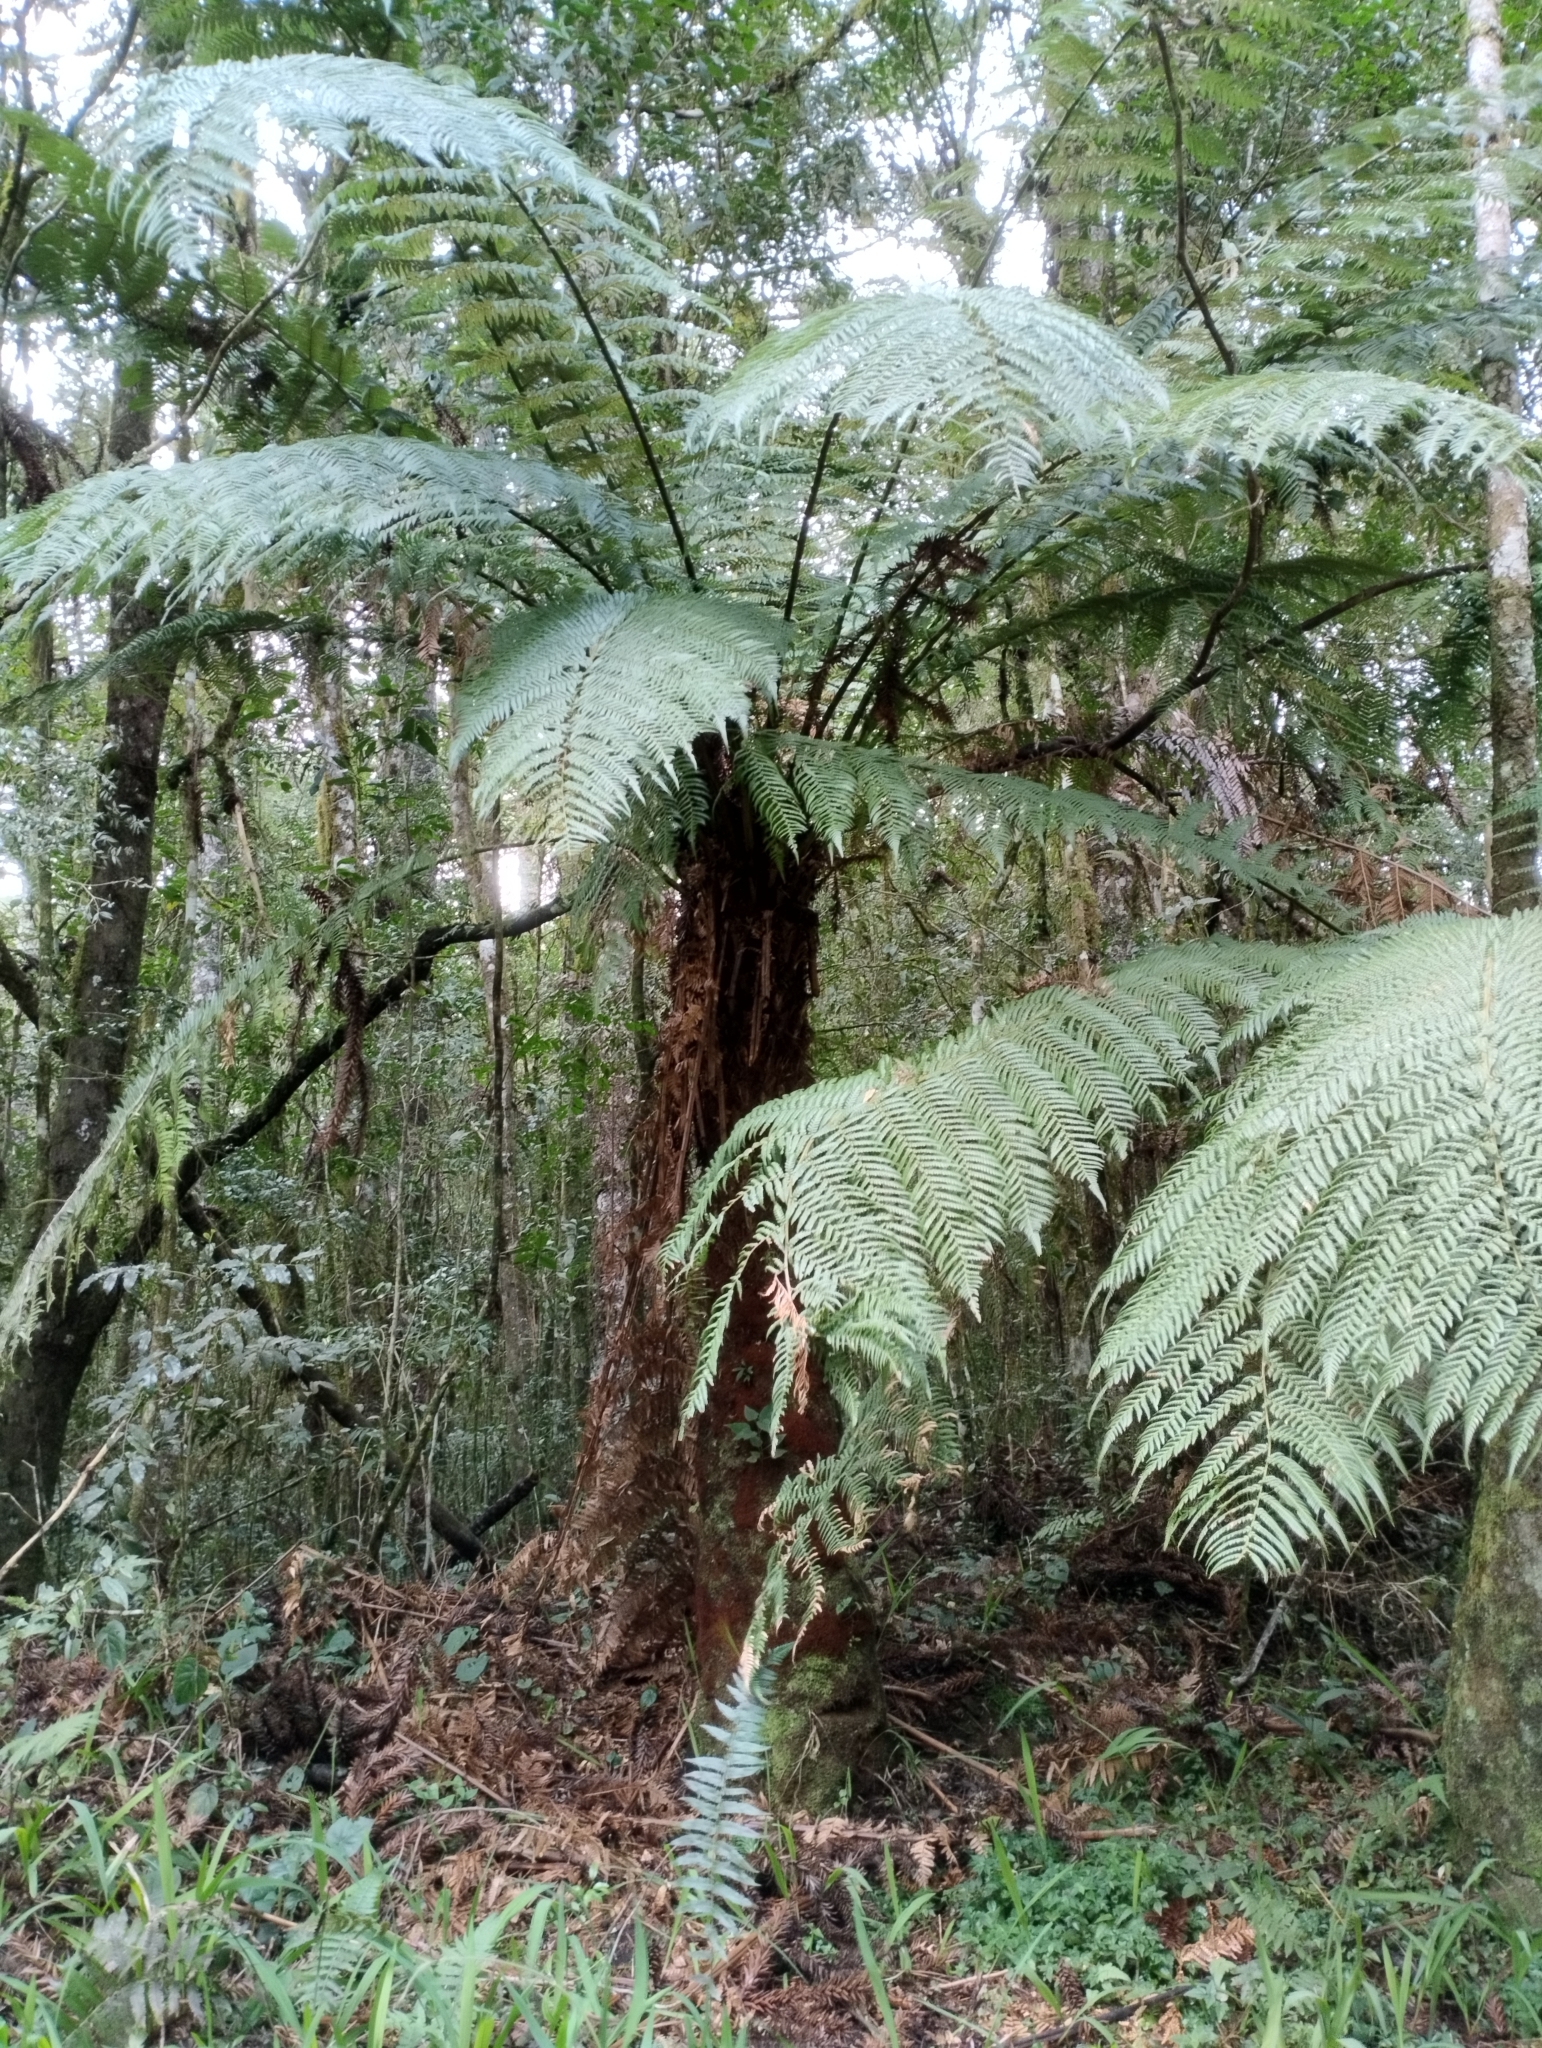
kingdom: Plantae
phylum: Tracheophyta
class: Polypodiopsida
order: Cyatheales
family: Dicksoniaceae
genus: Dicksonia
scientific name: Dicksonia sellowiana
